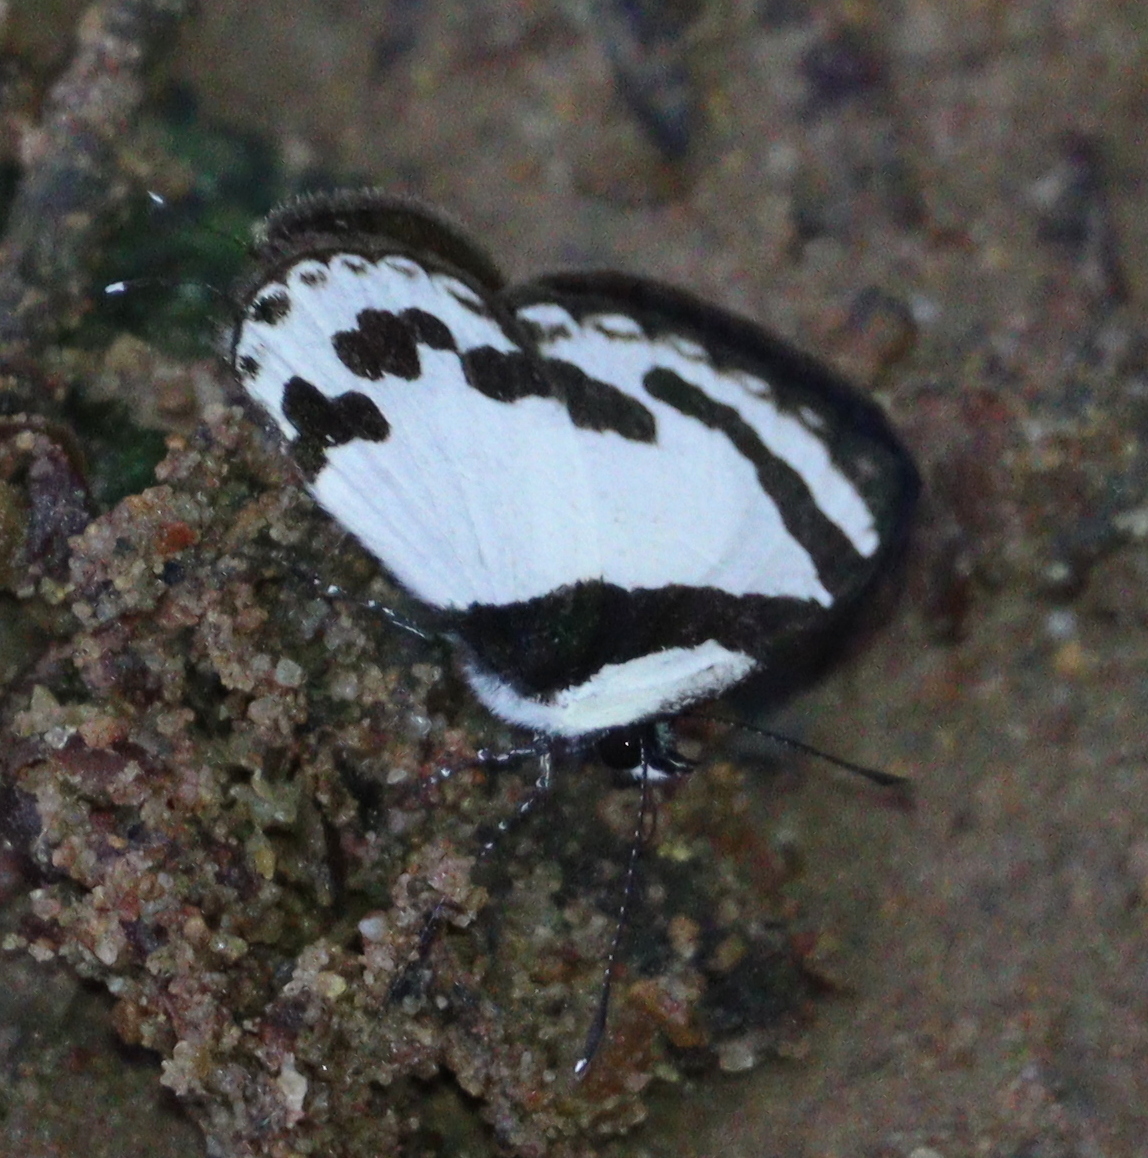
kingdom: Animalia
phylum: Arthropoda
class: Insecta
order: Lepidoptera
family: Lycaenidae
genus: Caleta
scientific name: Caleta roxus
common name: Straight pierrot
